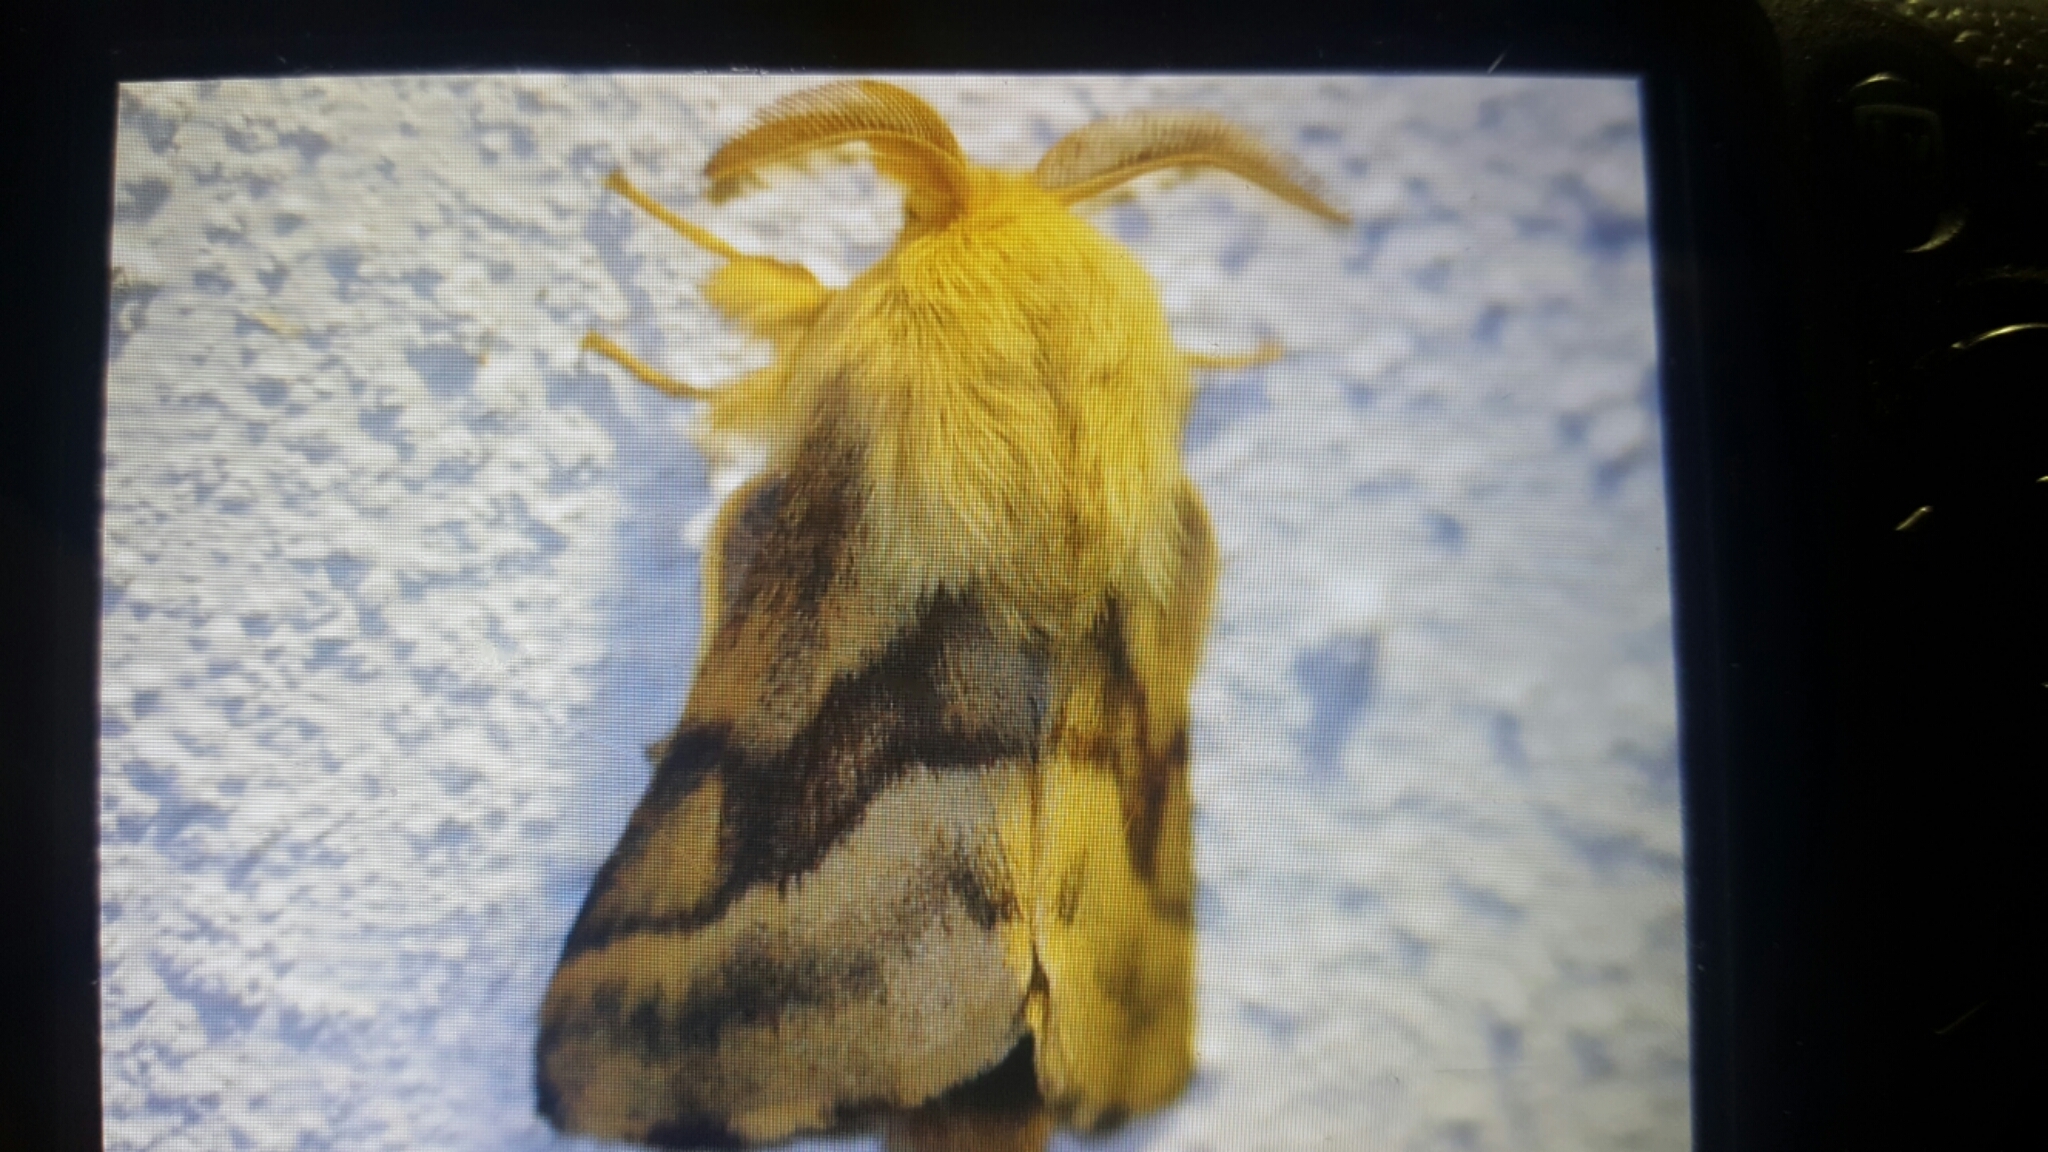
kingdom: Animalia
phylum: Arthropoda
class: Insecta
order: Lepidoptera
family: Lasiocampidae
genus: Malacosoma
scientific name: Malacosoma castrense
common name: Ground lackey
